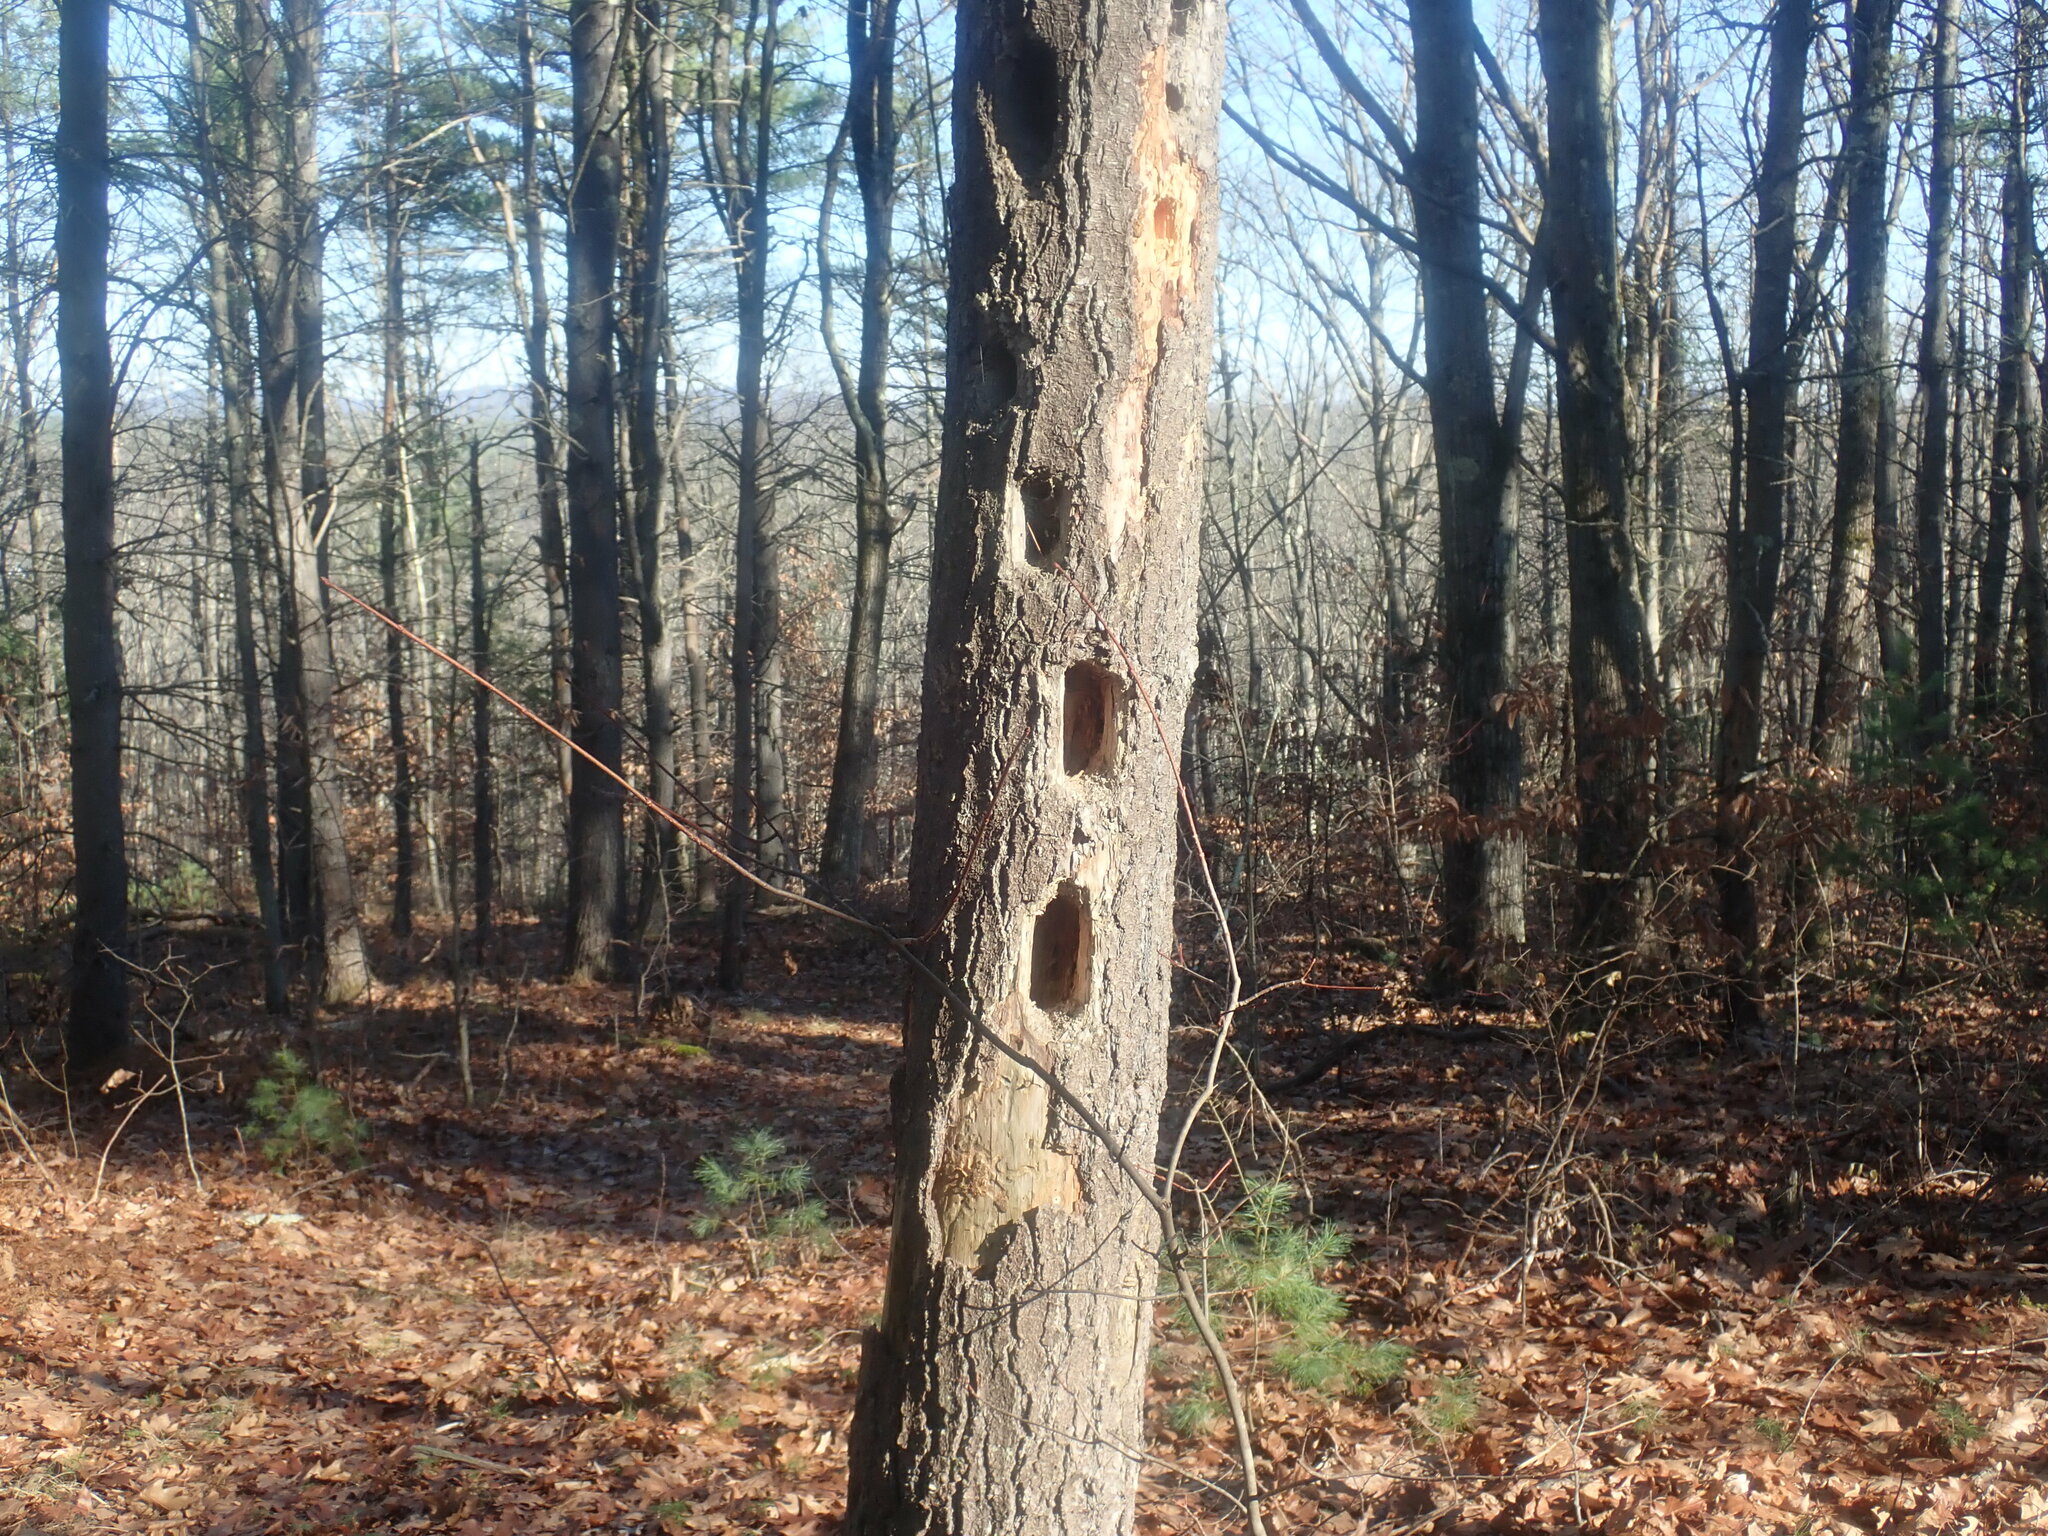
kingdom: Animalia
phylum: Chordata
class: Aves
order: Piciformes
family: Picidae
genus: Dryocopus
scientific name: Dryocopus pileatus
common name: Pileated woodpecker
